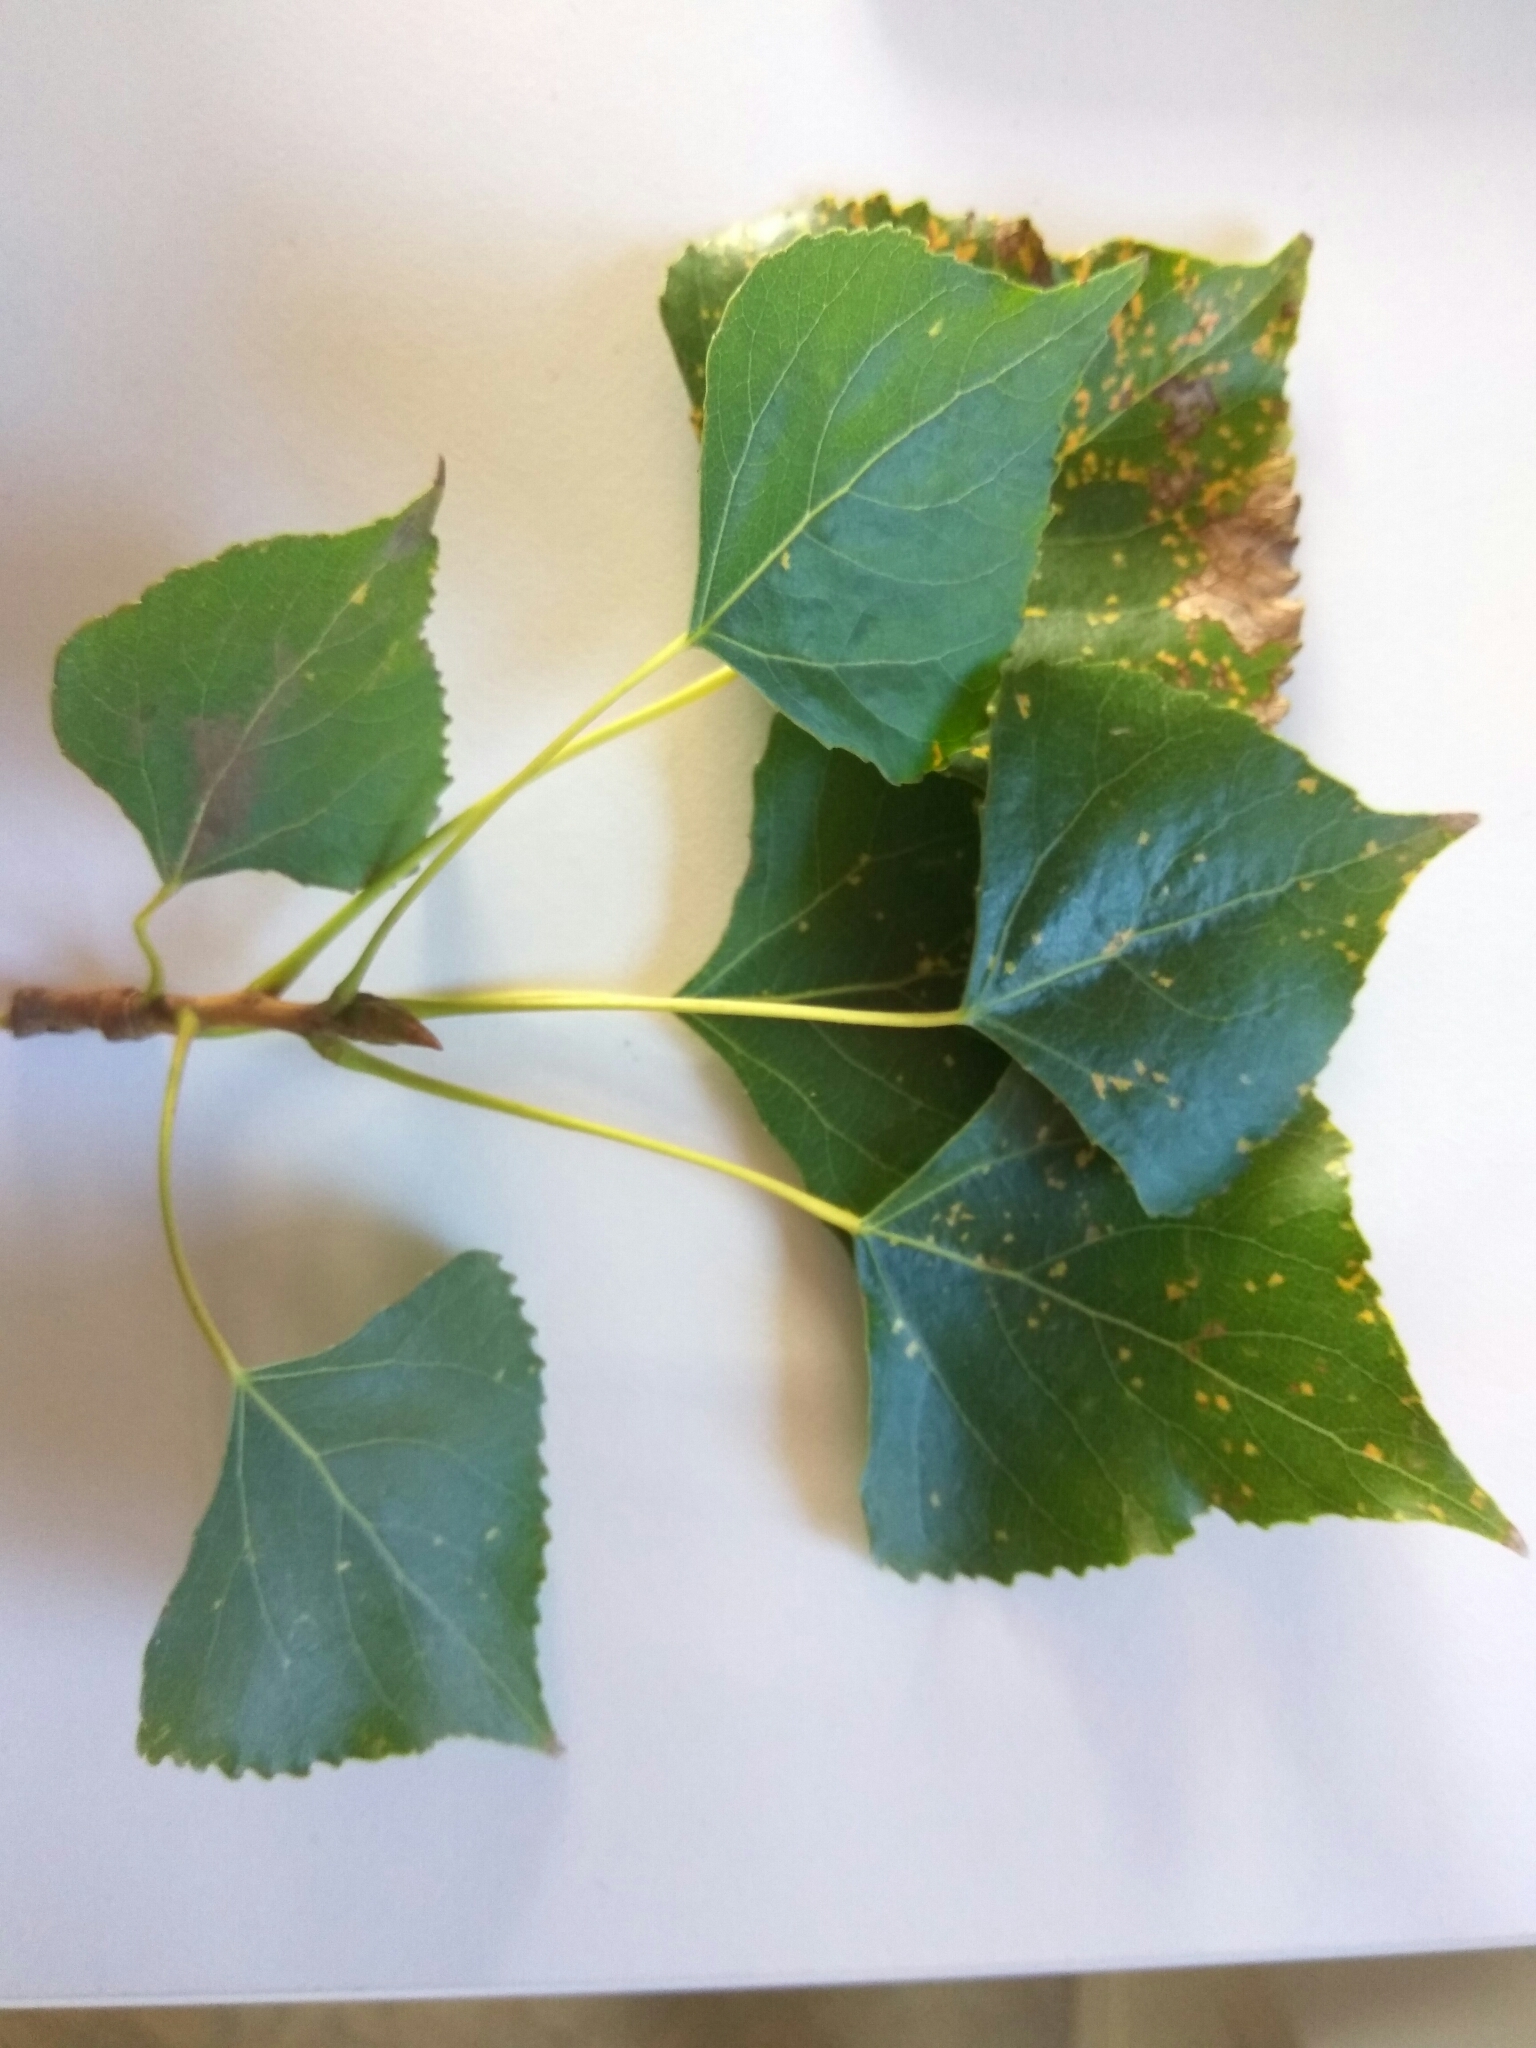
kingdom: Plantae
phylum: Tracheophyta
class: Magnoliopsida
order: Malpighiales
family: Salicaceae
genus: Populus
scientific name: Populus nigra
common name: Black poplar
